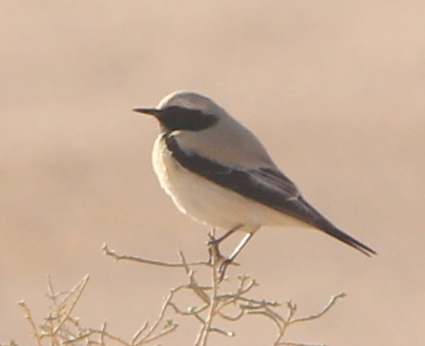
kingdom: Animalia
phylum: Chordata
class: Aves
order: Passeriformes
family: Muscicapidae
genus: Oenanthe
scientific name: Oenanthe deserti
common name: Desert wheatear
